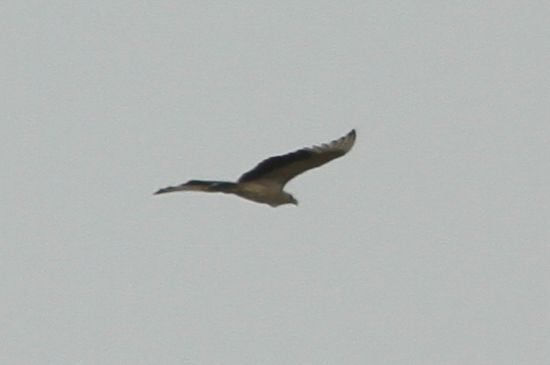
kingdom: Animalia
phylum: Chordata
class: Aves
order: Accipitriformes
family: Accipitridae
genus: Gypohierax
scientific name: Gypohierax angolensis
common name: Palm-nut vulture
